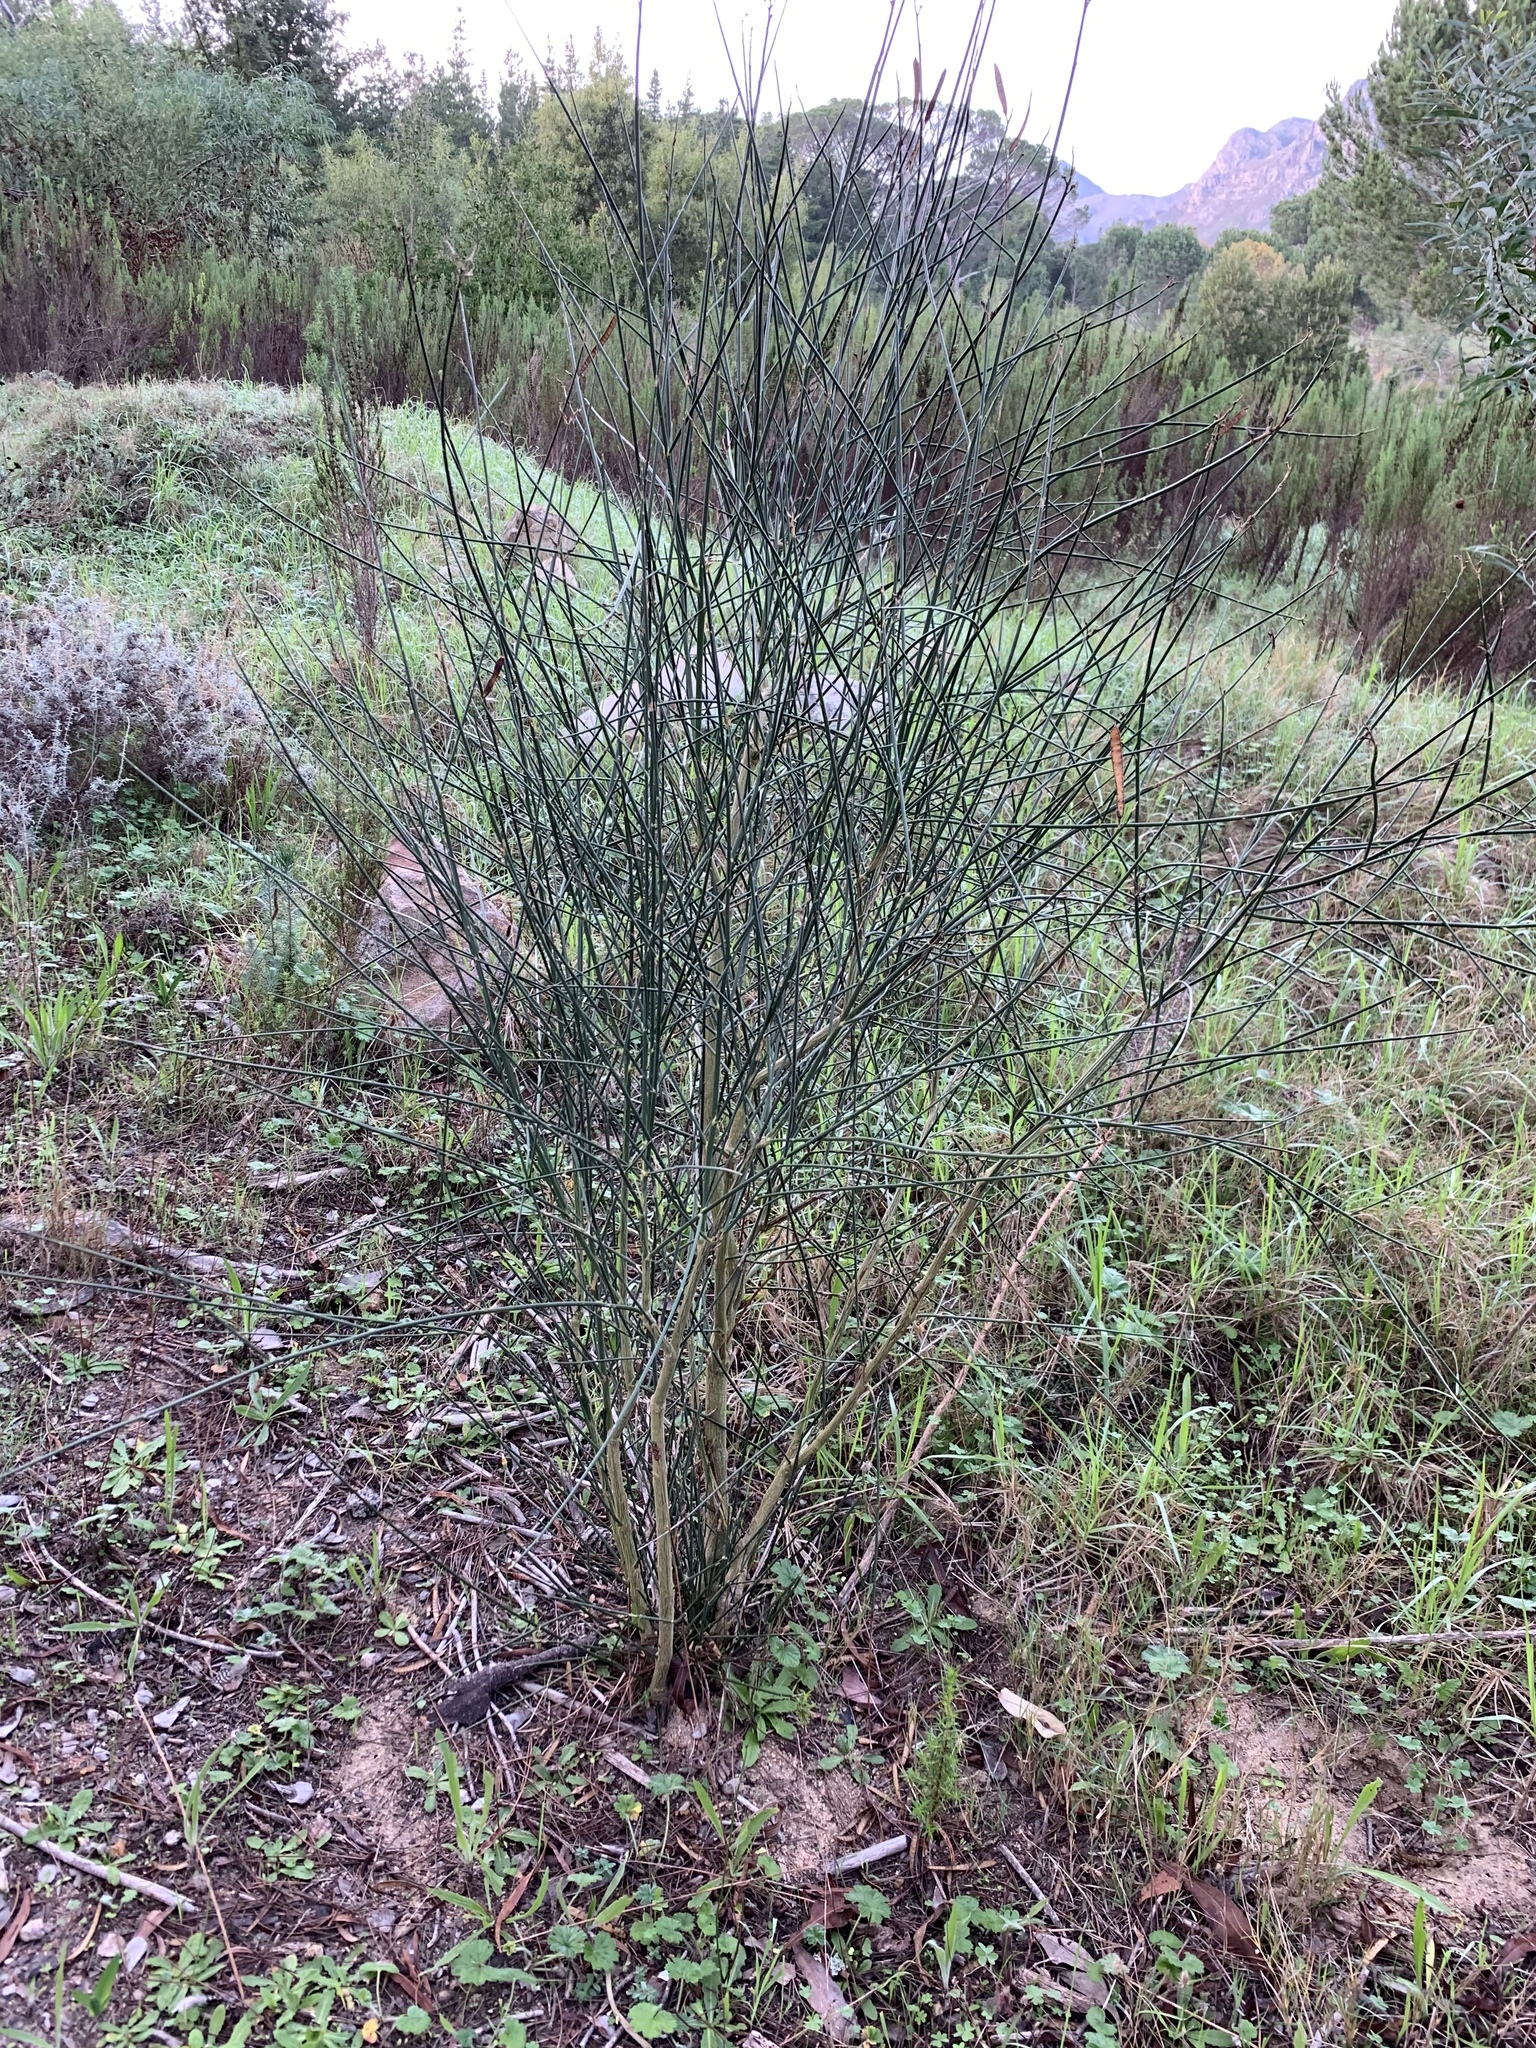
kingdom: Plantae
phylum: Tracheophyta
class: Magnoliopsida
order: Fabales
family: Fabaceae
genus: Spartium
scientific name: Spartium junceum
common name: Spanish broom
